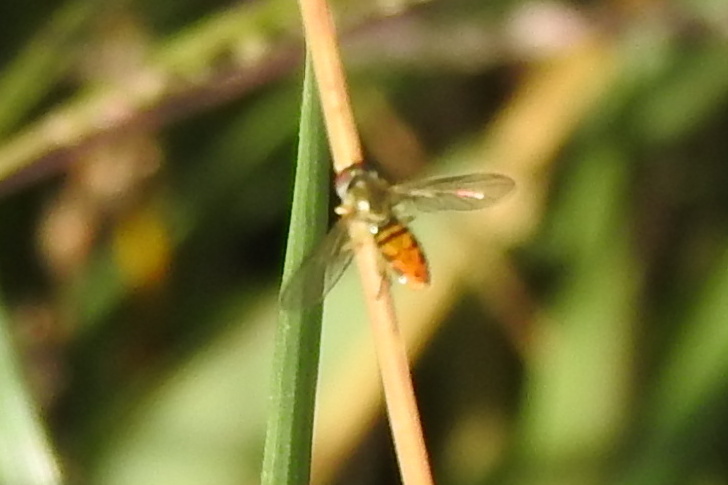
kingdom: Animalia
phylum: Arthropoda
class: Insecta
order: Diptera
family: Syrphidae
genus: Toxomerus
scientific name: Toxomerus marginatus
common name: Syrphid fly
